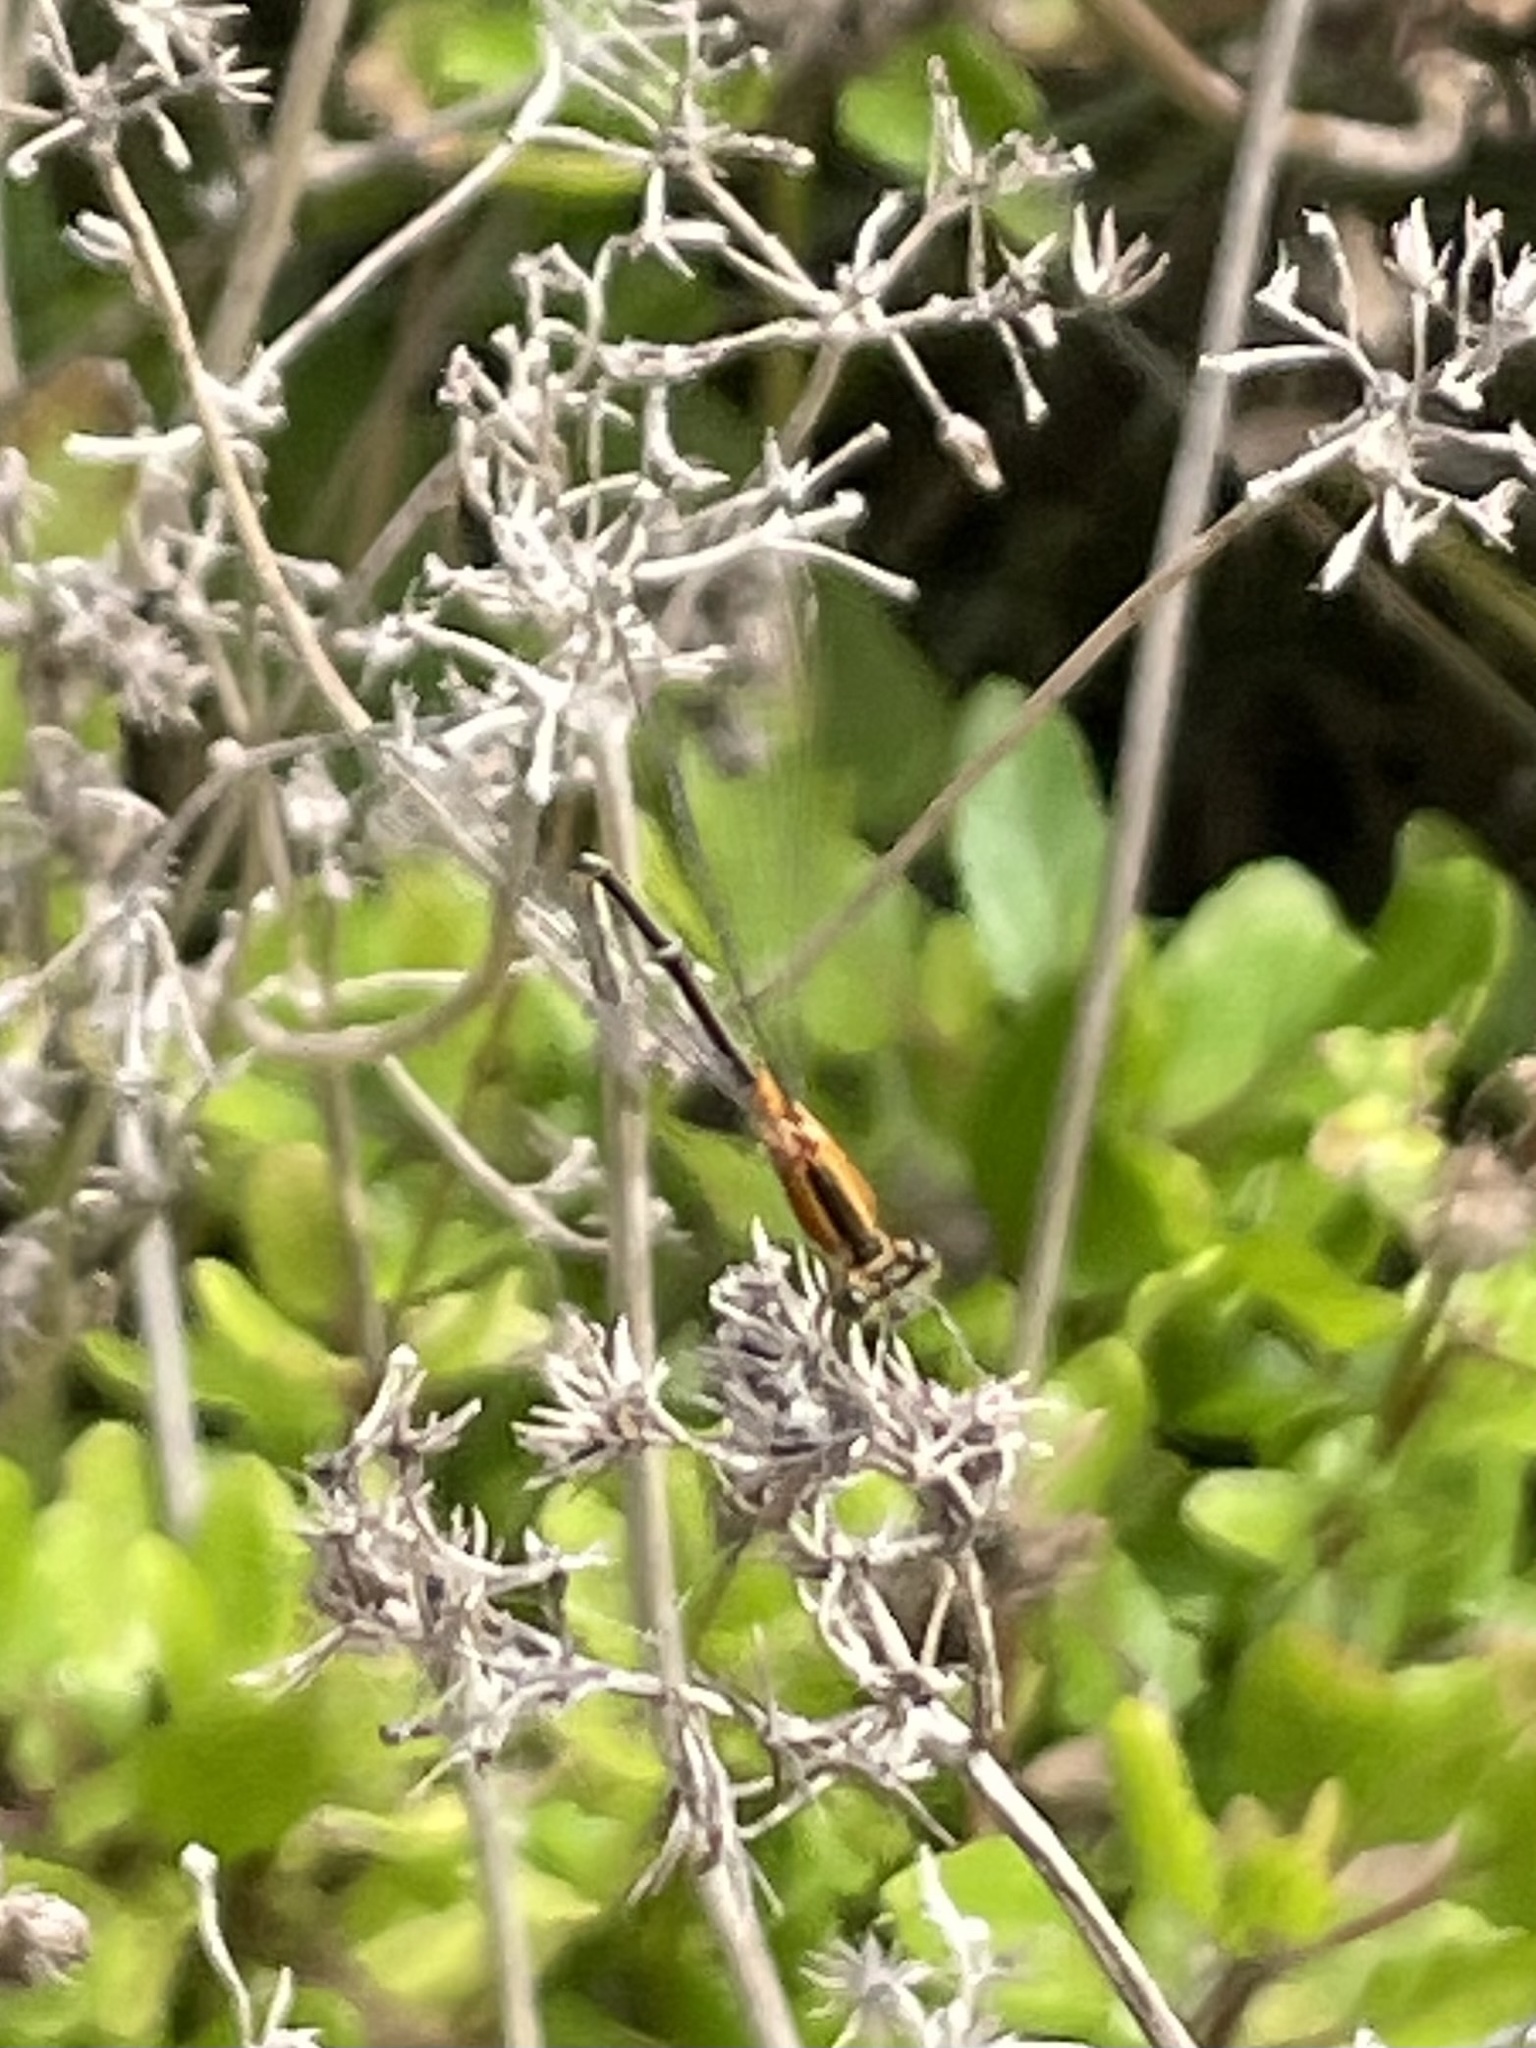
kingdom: Animalia
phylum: Arthropoda
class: Insecta
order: Odonata
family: Coenagrionidae
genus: Ischnura
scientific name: Ischnura ramburii
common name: Rambur's forktail
